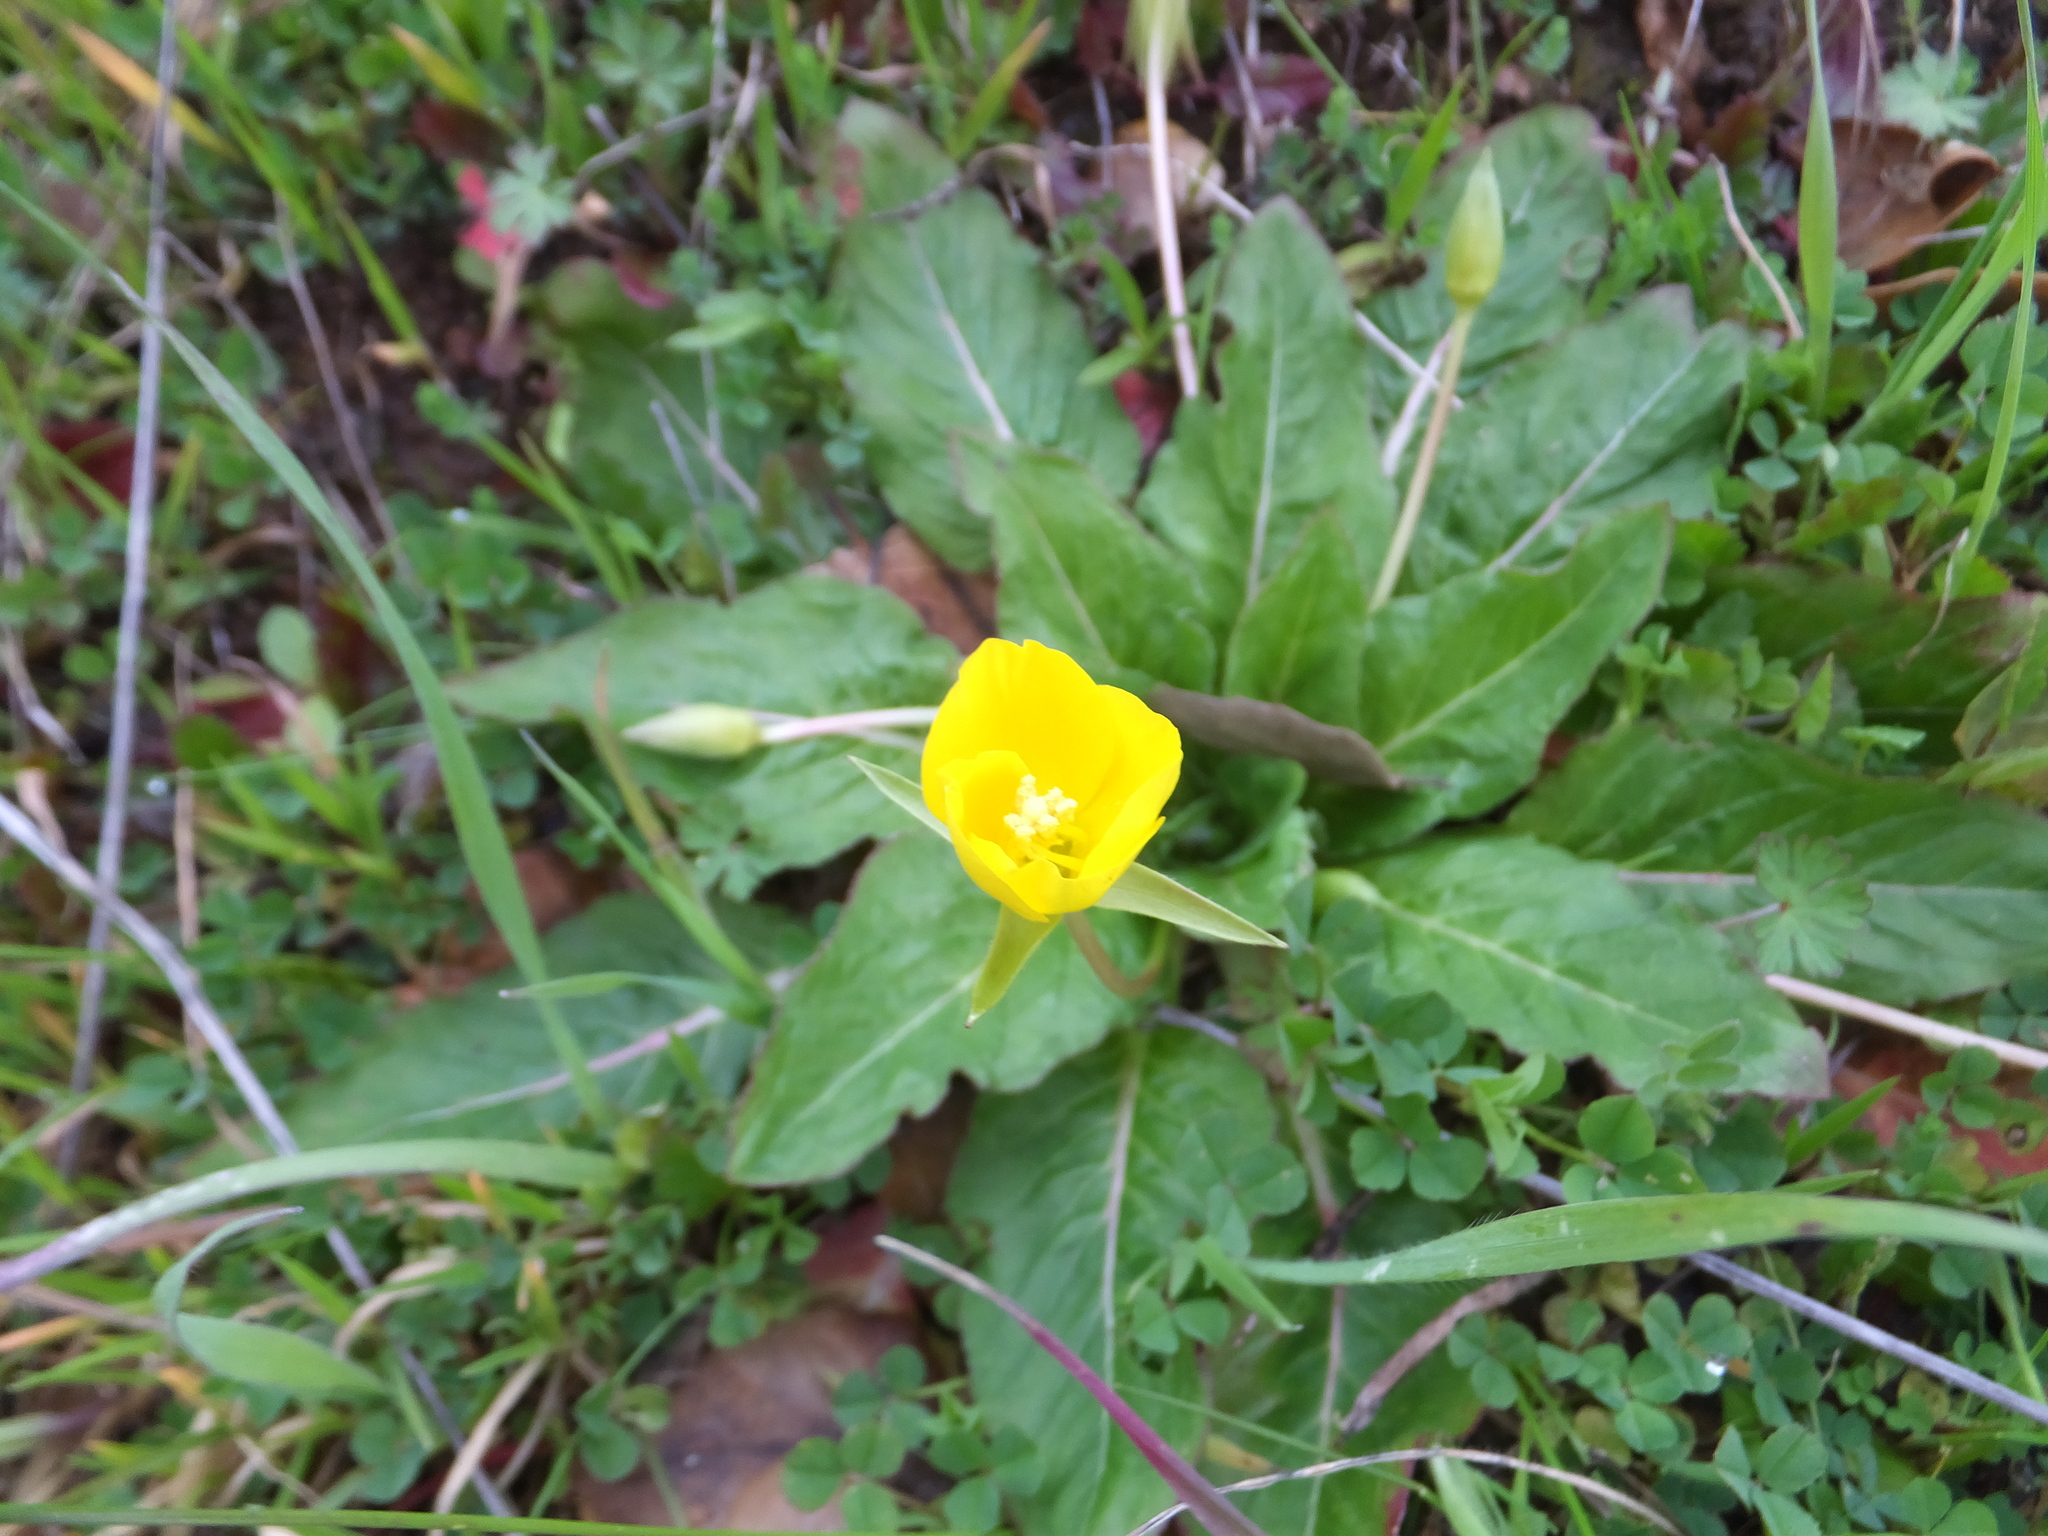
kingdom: Plantae
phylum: Tracheophyta
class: Magnoliopsida
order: Myrtales
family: Onagraceae
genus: Taraxia
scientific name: Taraxia ovata
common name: Goldeneggs
